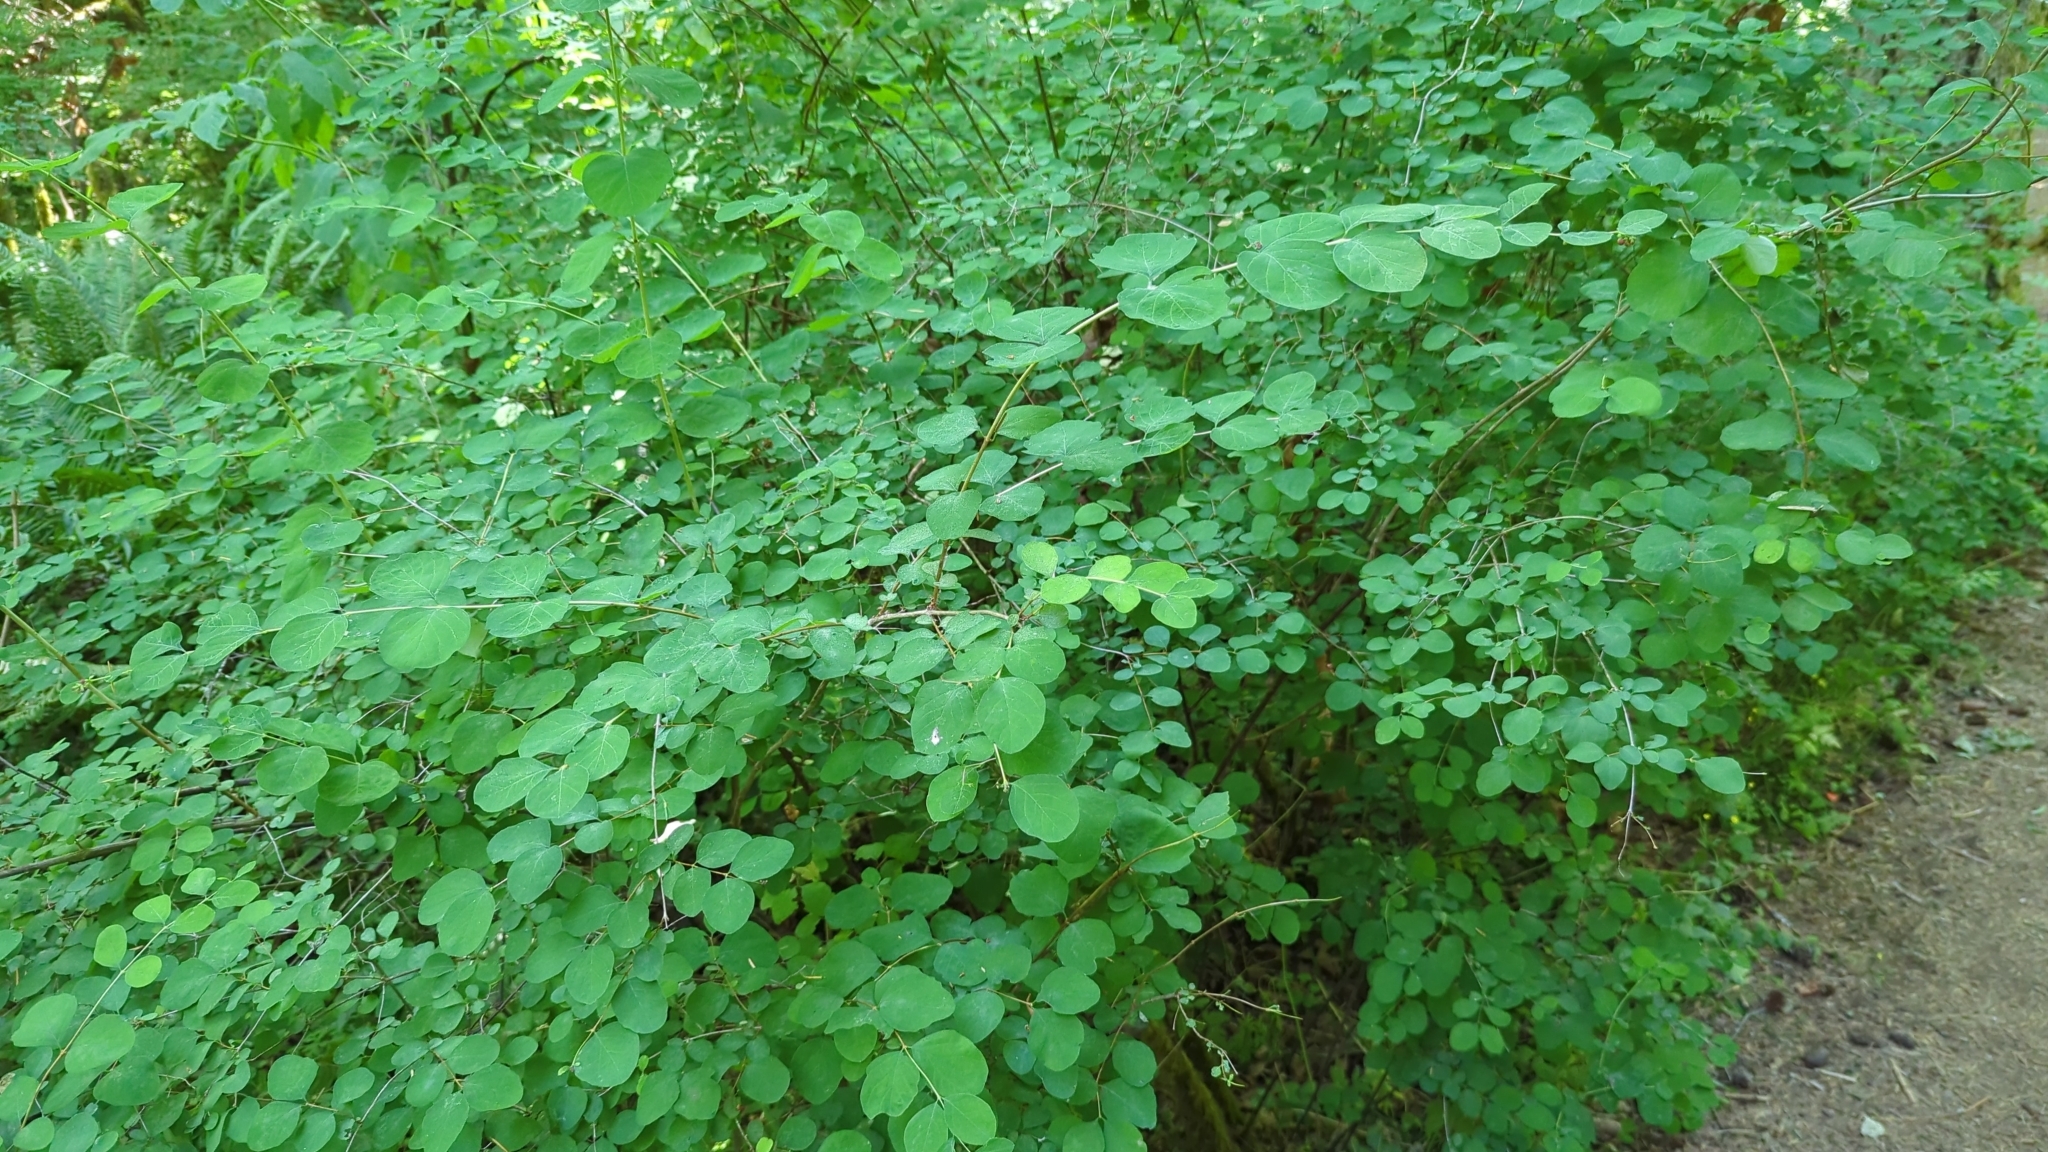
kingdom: Plantae
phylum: Tracheophyta
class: Magnoliopsida
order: Dipsacales
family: Caprifoliaceae
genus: Symphoricarpos
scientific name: Symphoricarpos albus
